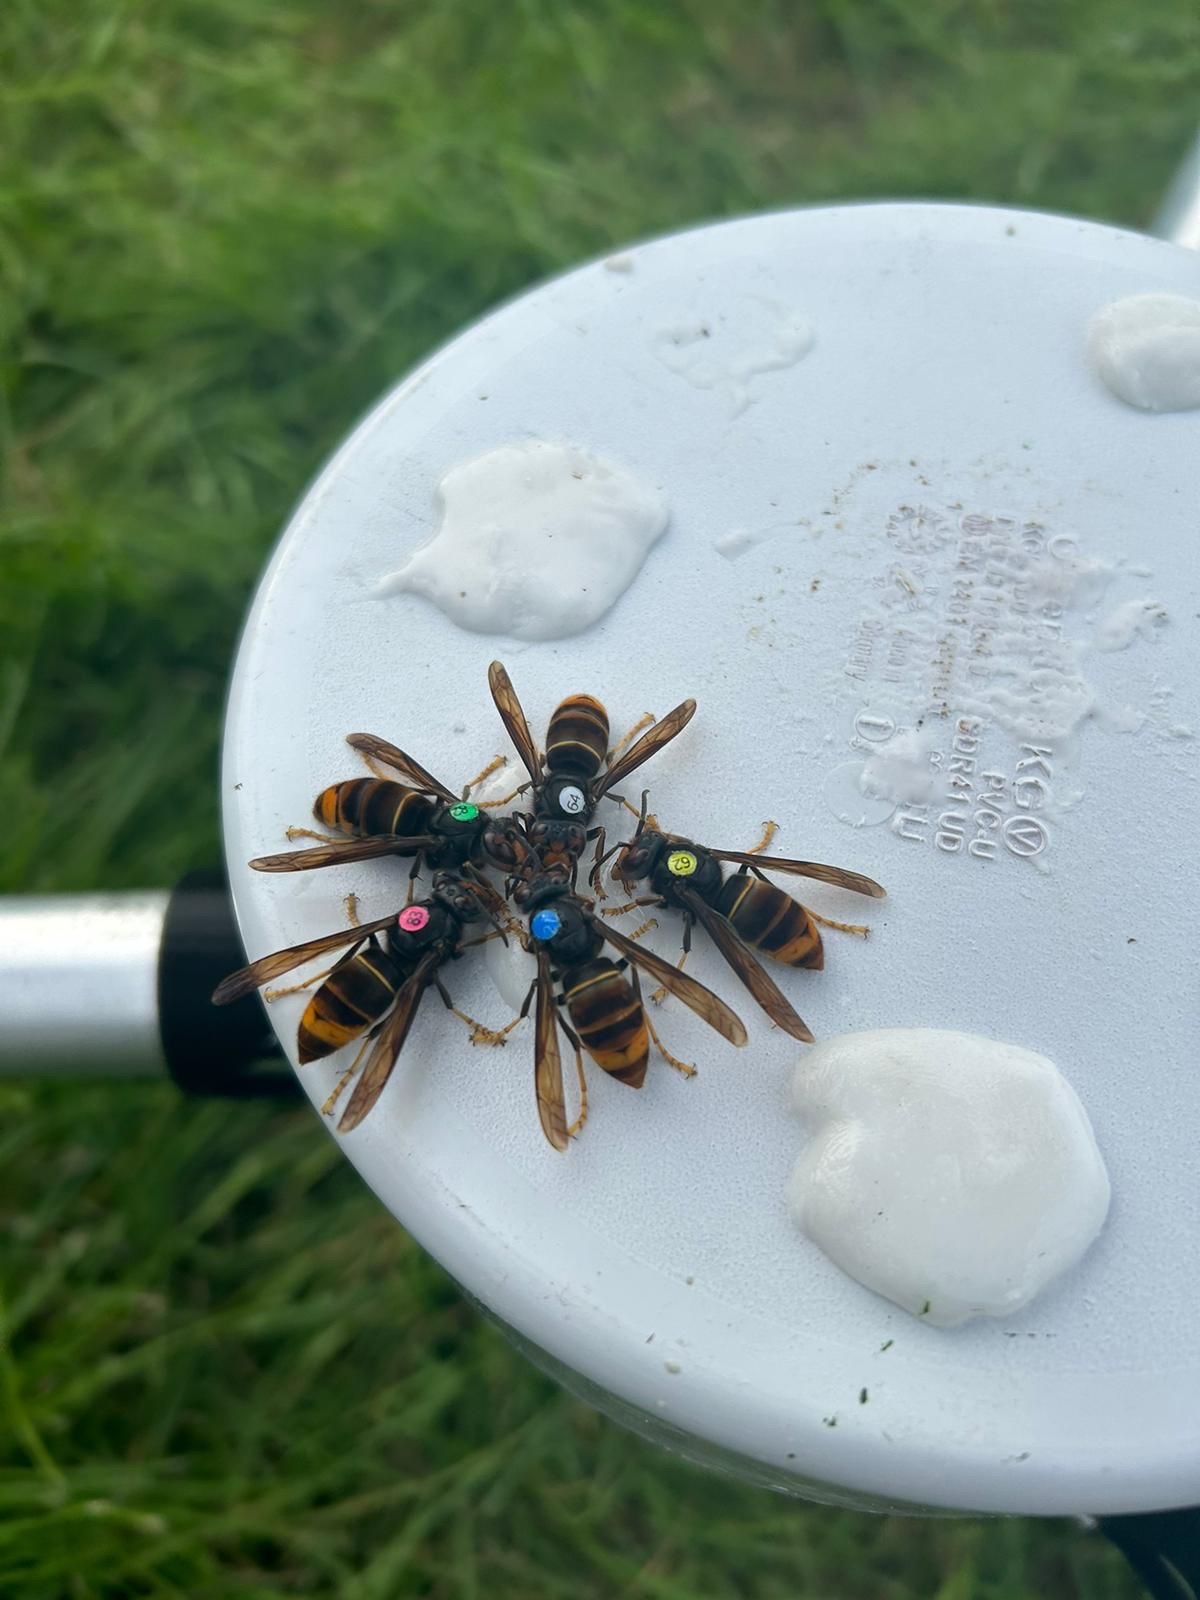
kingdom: Animalia
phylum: Arthropoda
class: Insecta
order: Hymenoptera
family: Vespidae
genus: Vespa
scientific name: Vespa velutina
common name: Asian hornet
